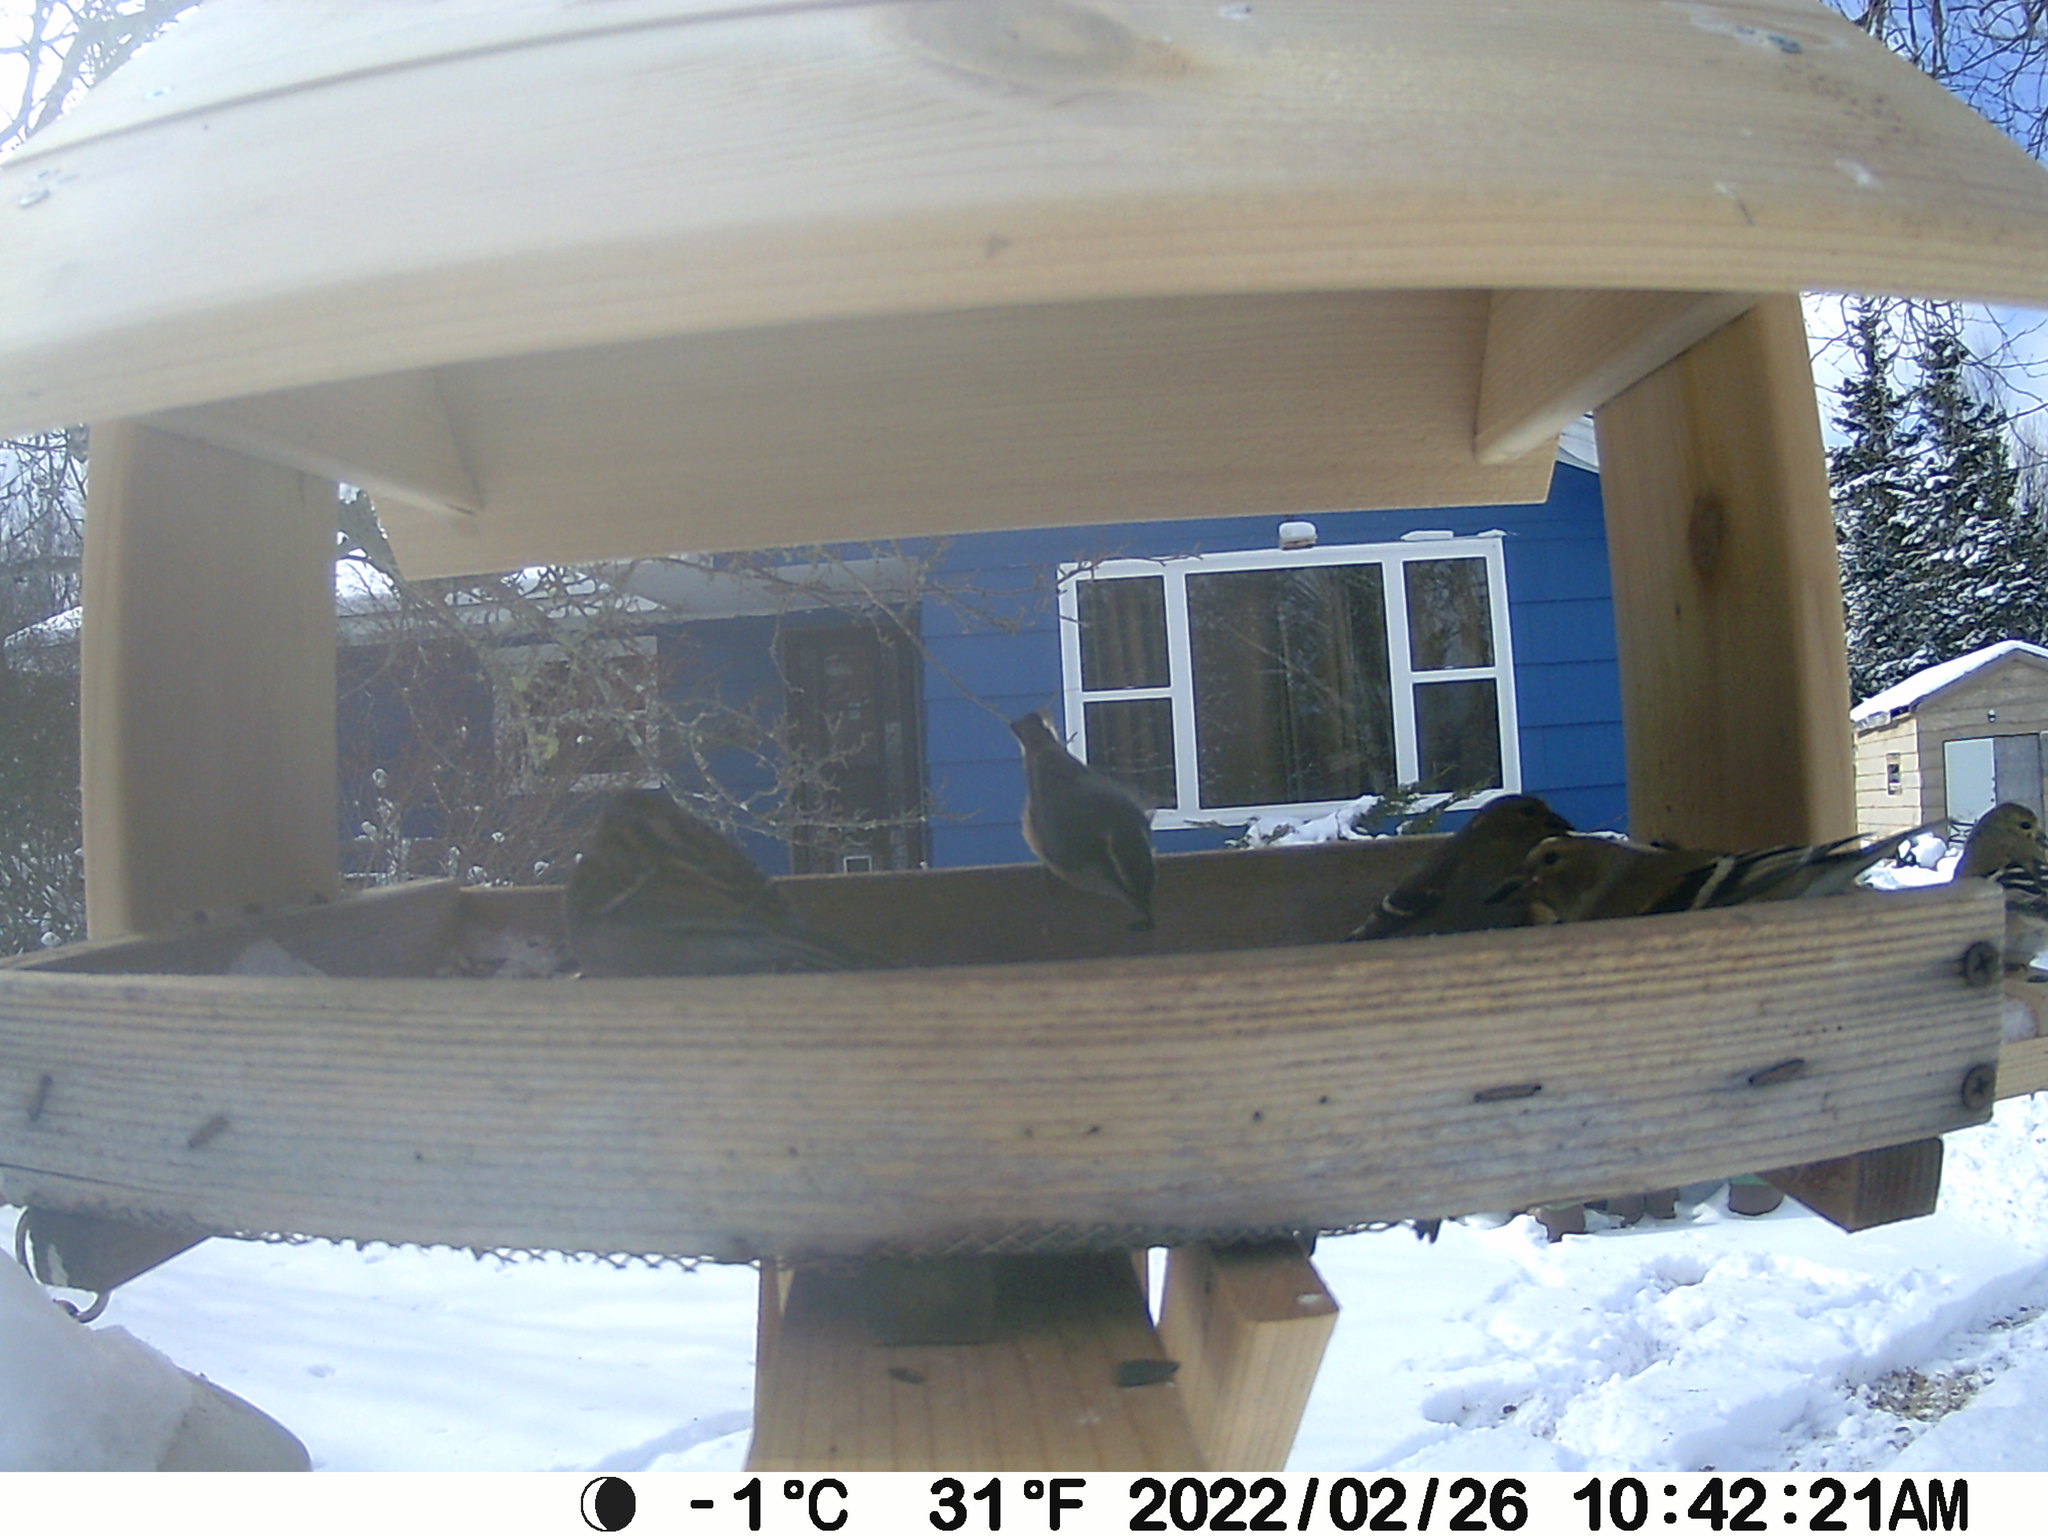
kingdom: Animalia
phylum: Chordata
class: Aves
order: Passeriformes
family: Sittidae
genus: Sitta
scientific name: Sitta canadensis
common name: Red-breasted nuthatch
